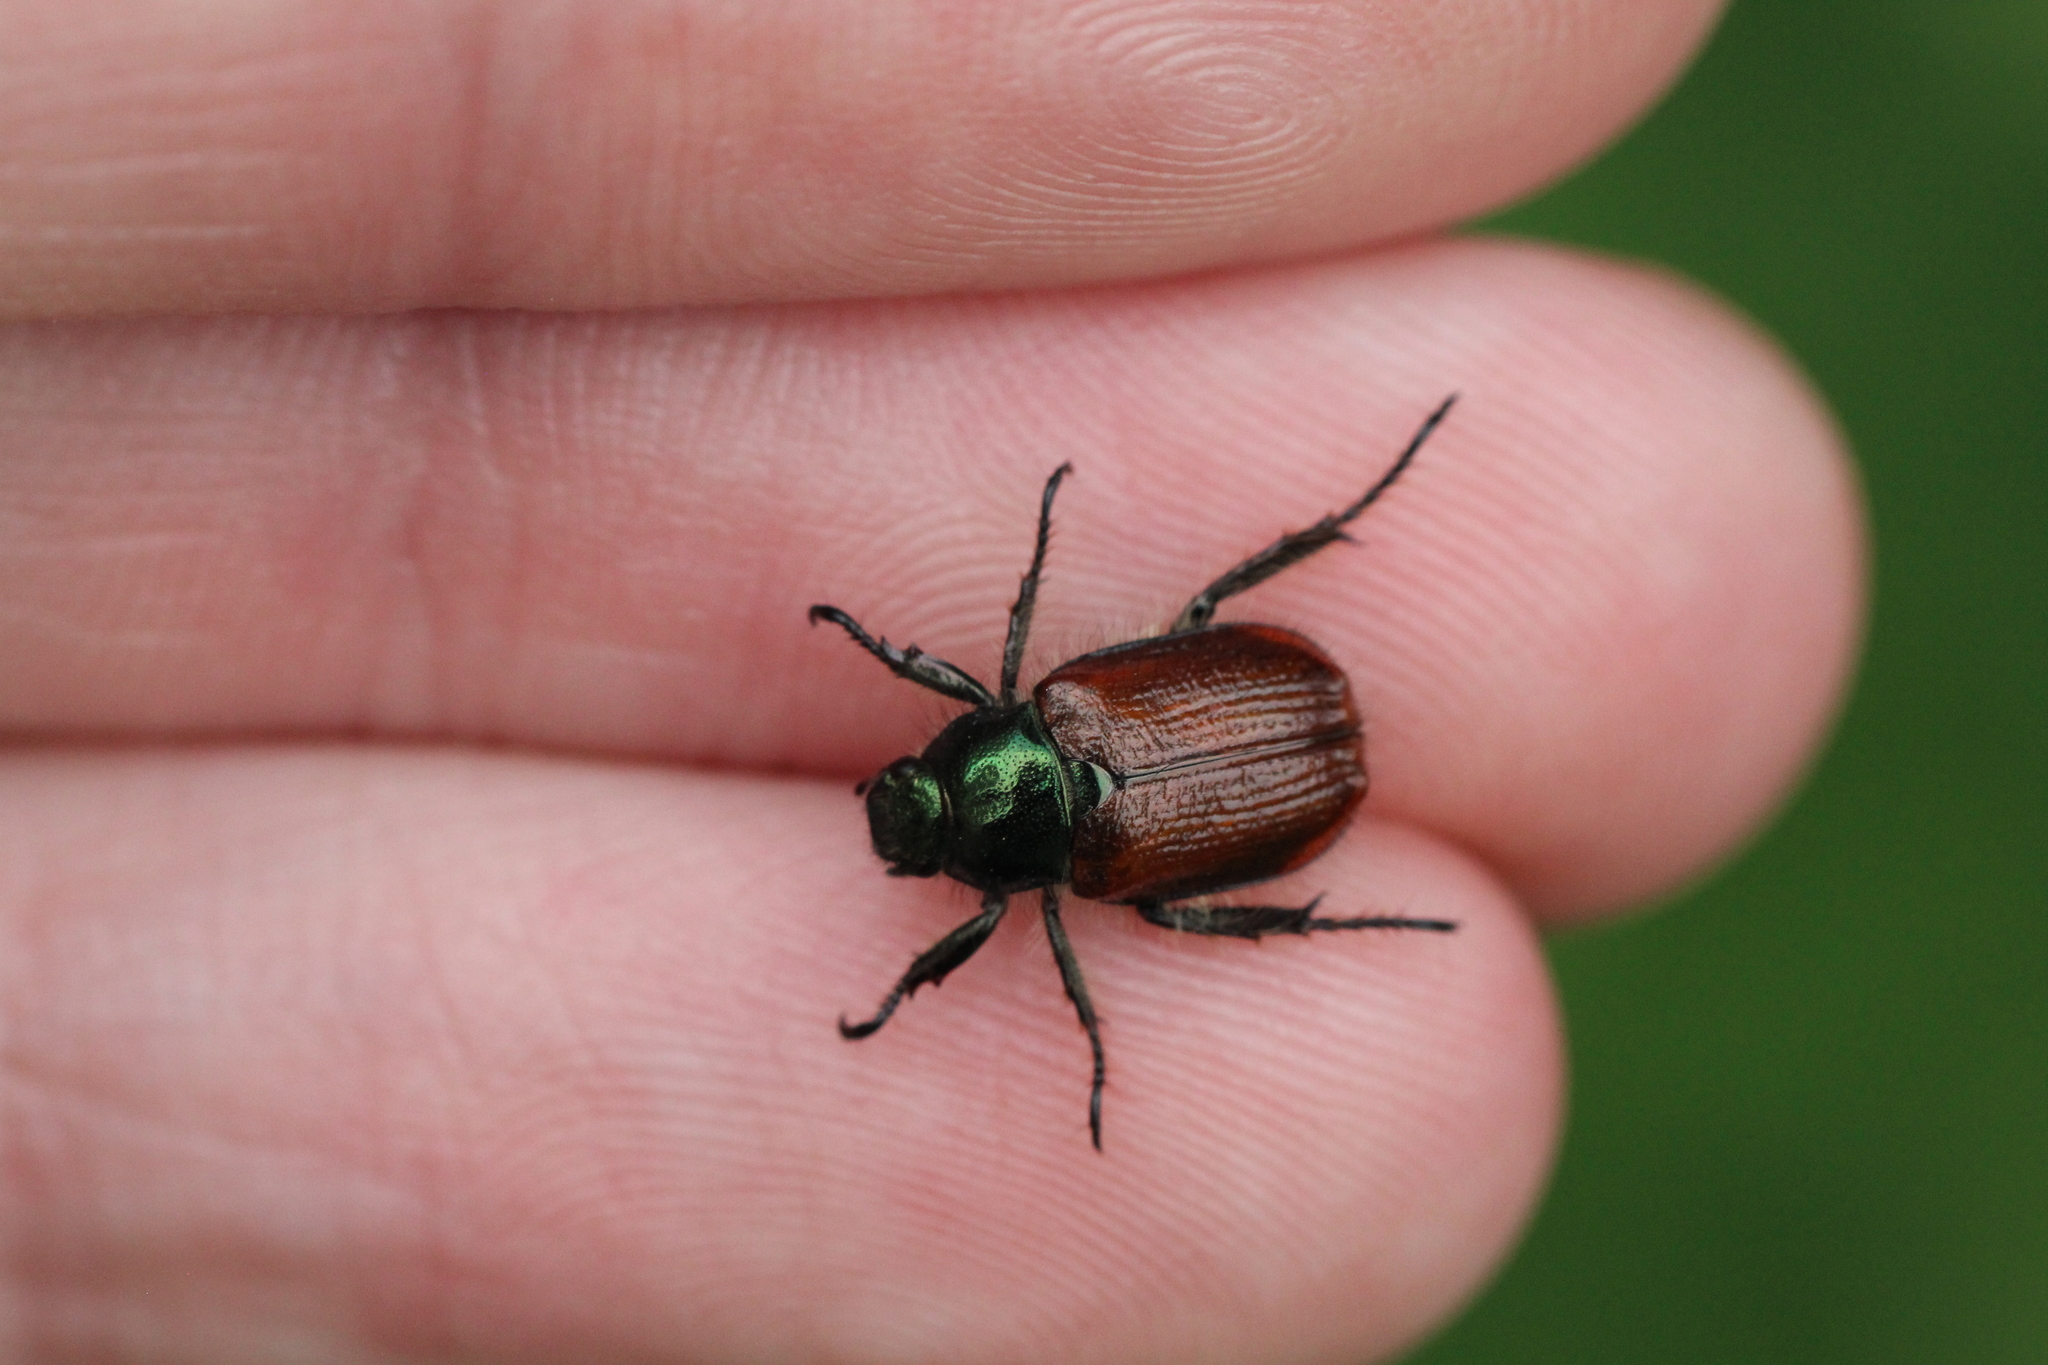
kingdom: Animalia
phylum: Arthropoda
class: Insecta
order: Coleoptera
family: Scarabaeidae
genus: Phyllopertha
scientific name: Phyllopertha horticola
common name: Garden chafer
